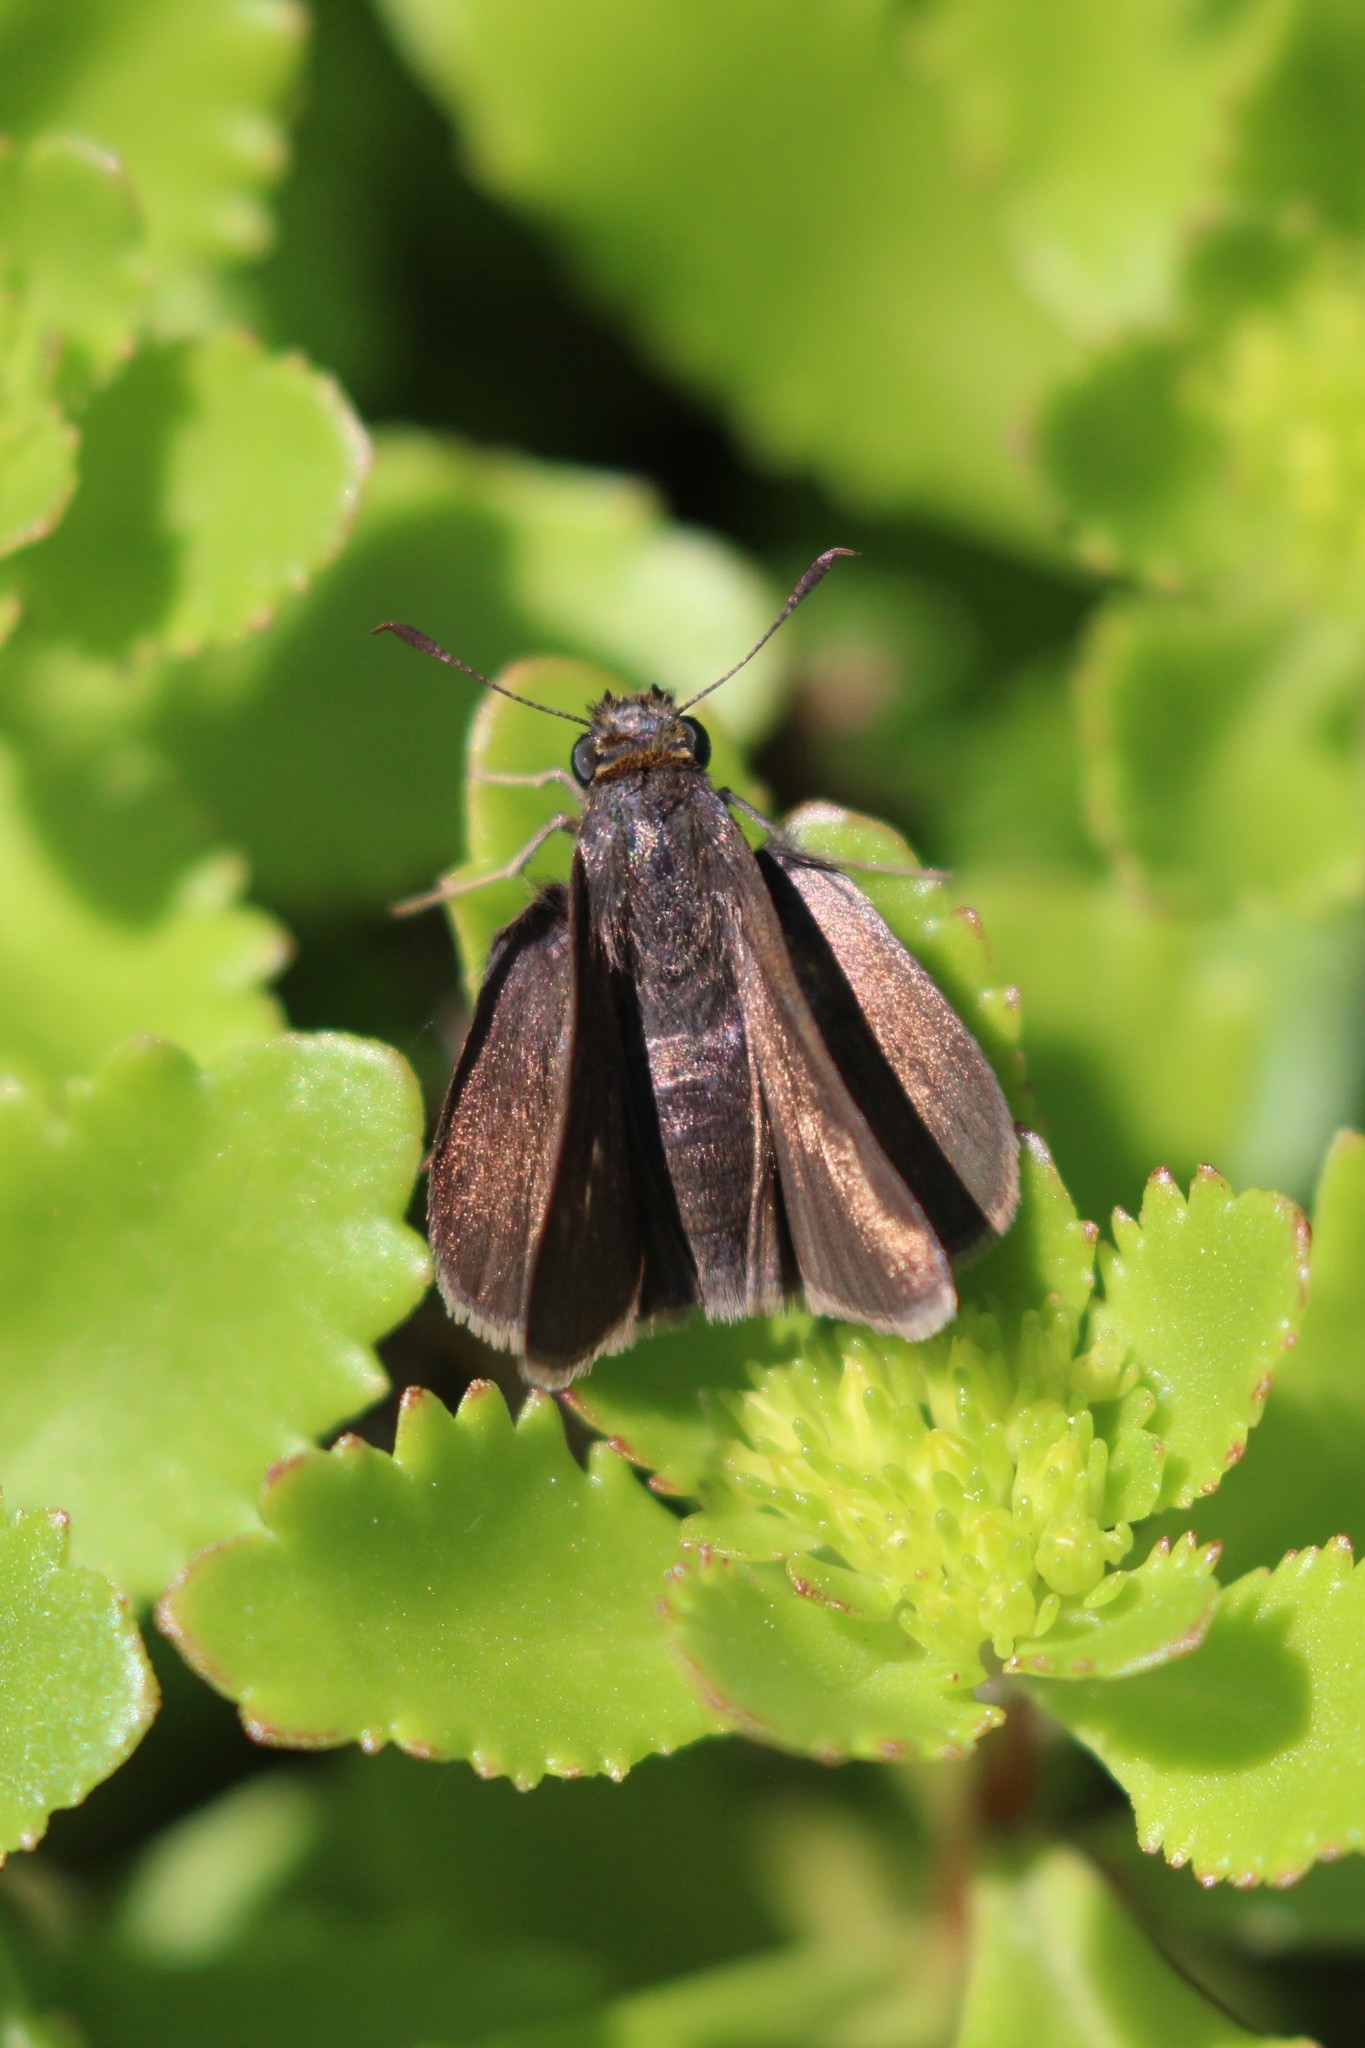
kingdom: Animalia
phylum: Arthropoda
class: Insecta
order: Lepidoptera
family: Hesperiidae
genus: Euphyes
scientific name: Euphyes vestris
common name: Dun skipper
